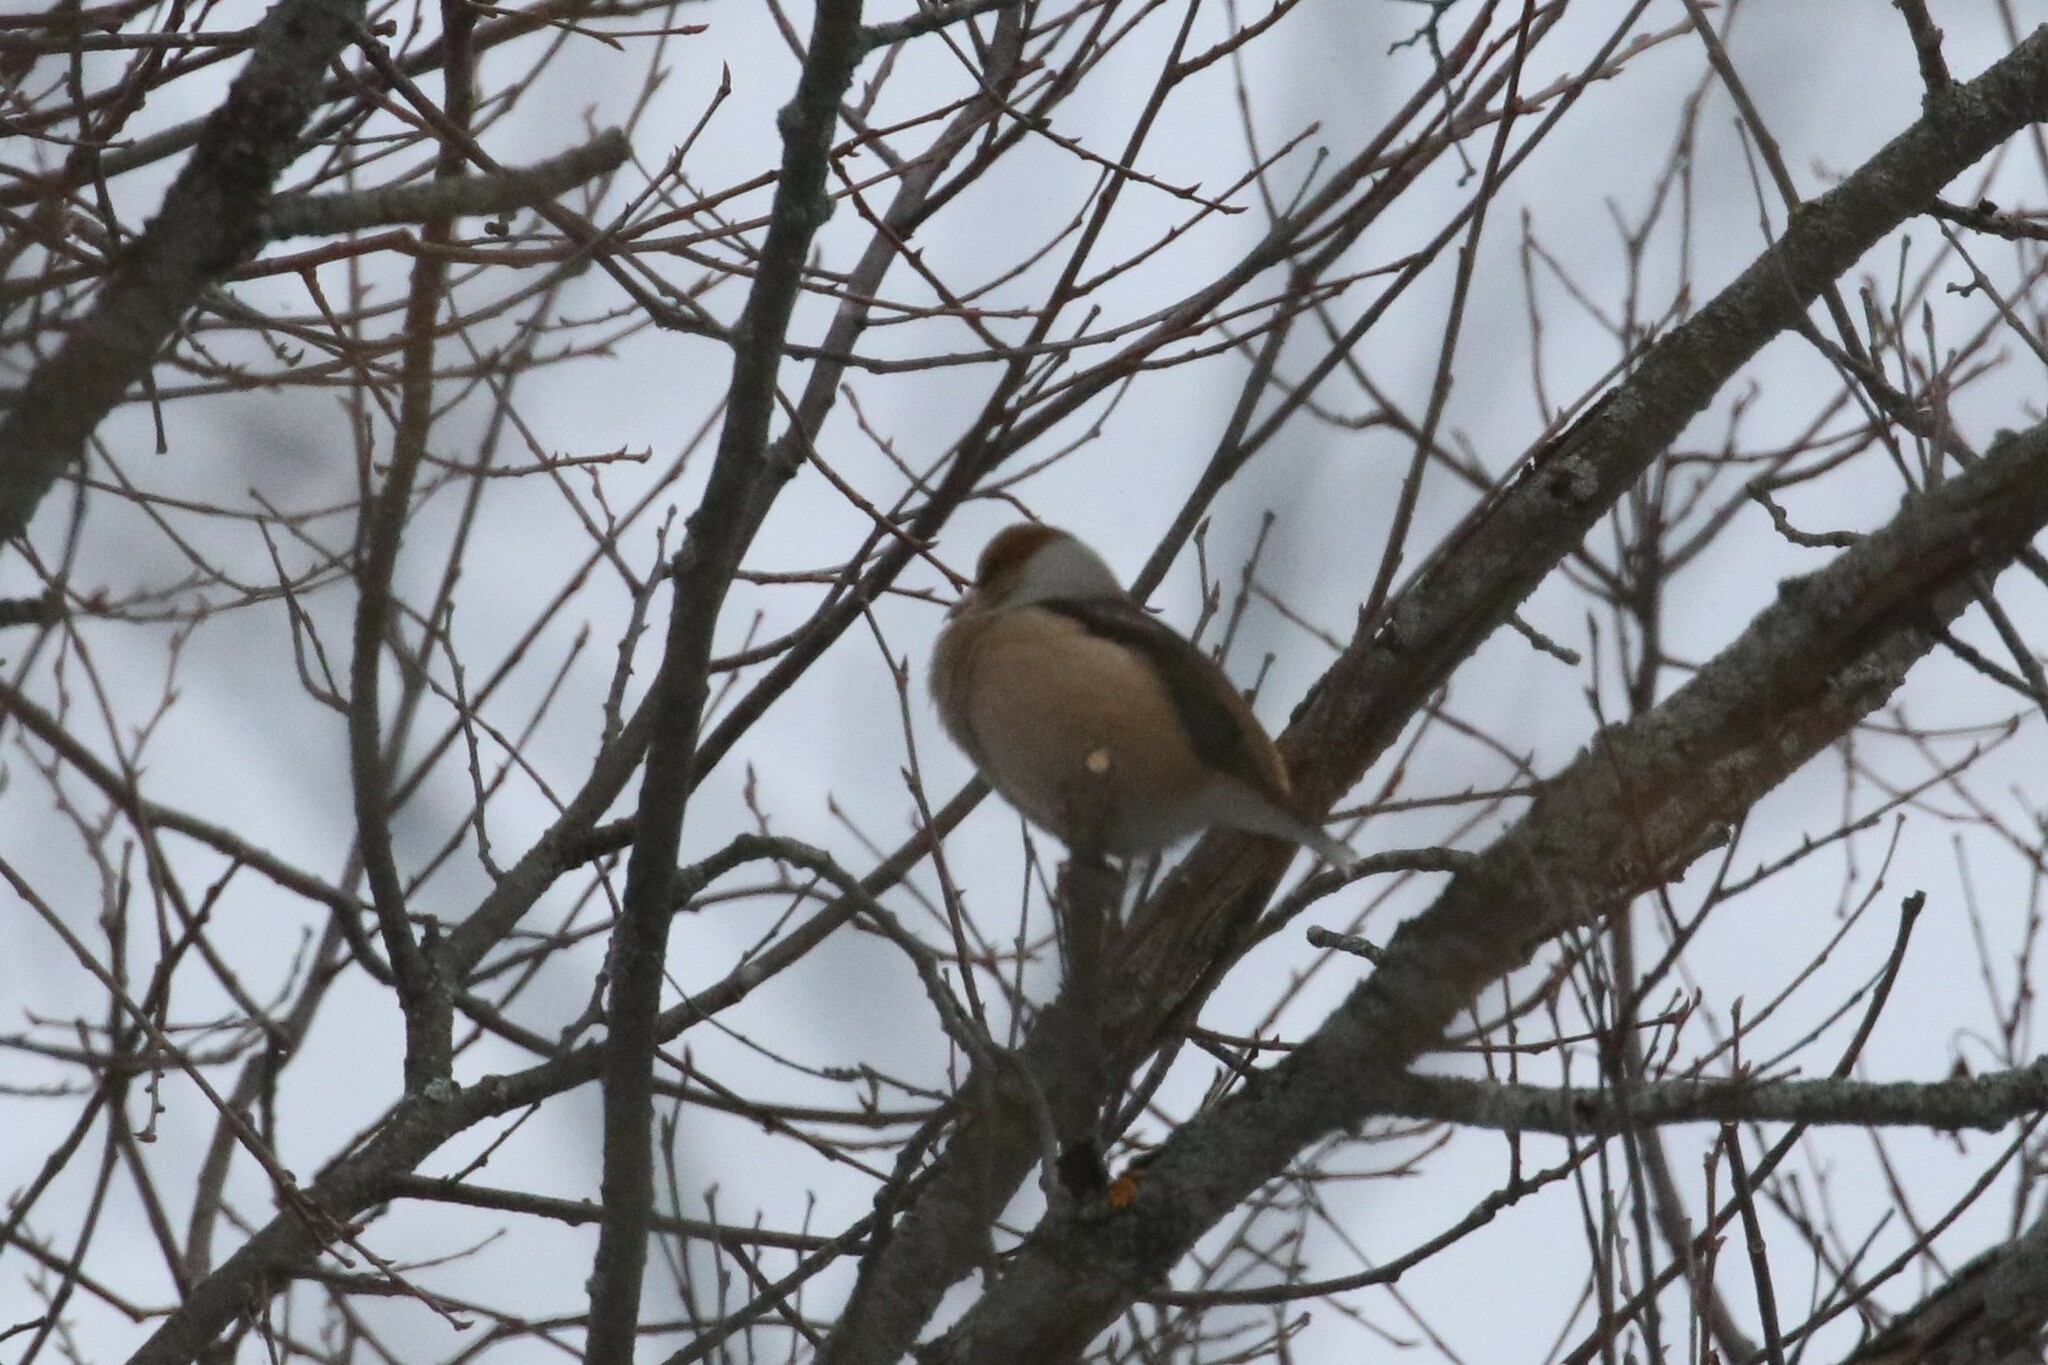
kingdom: Animalia
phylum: Chordata
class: Aves
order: Passeriformes
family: Fringillidae
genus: Coccothraustes
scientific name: Coccothraustes coccothraustes
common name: Hawfinch
